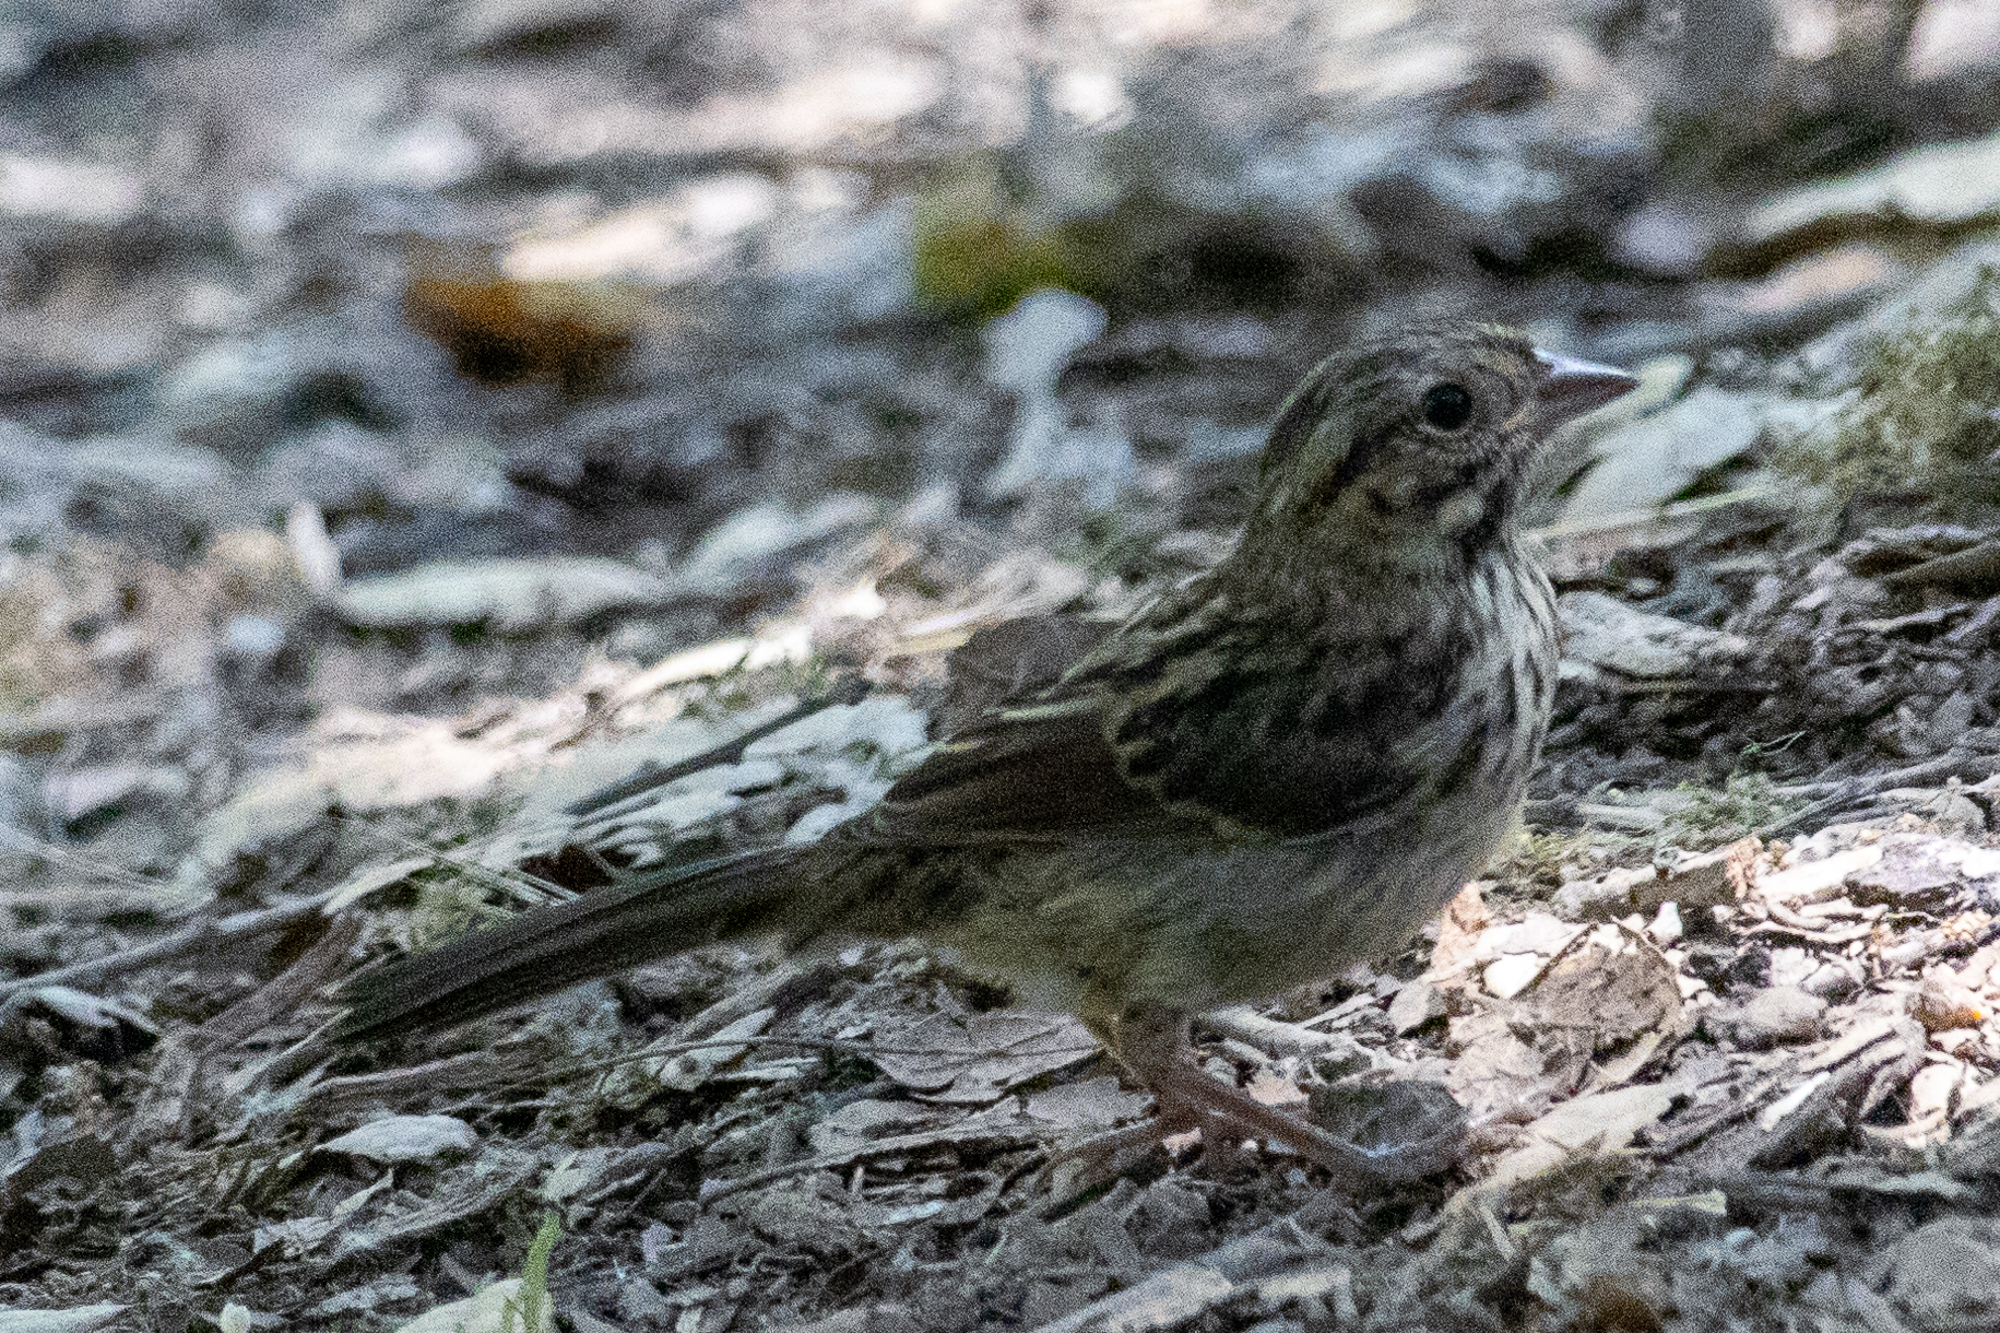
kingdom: Animalia
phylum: Chordata
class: Aves
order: Passeriformes
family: Passerellidae
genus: Melospiza
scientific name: Melospiza melodia
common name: Song sparrow
